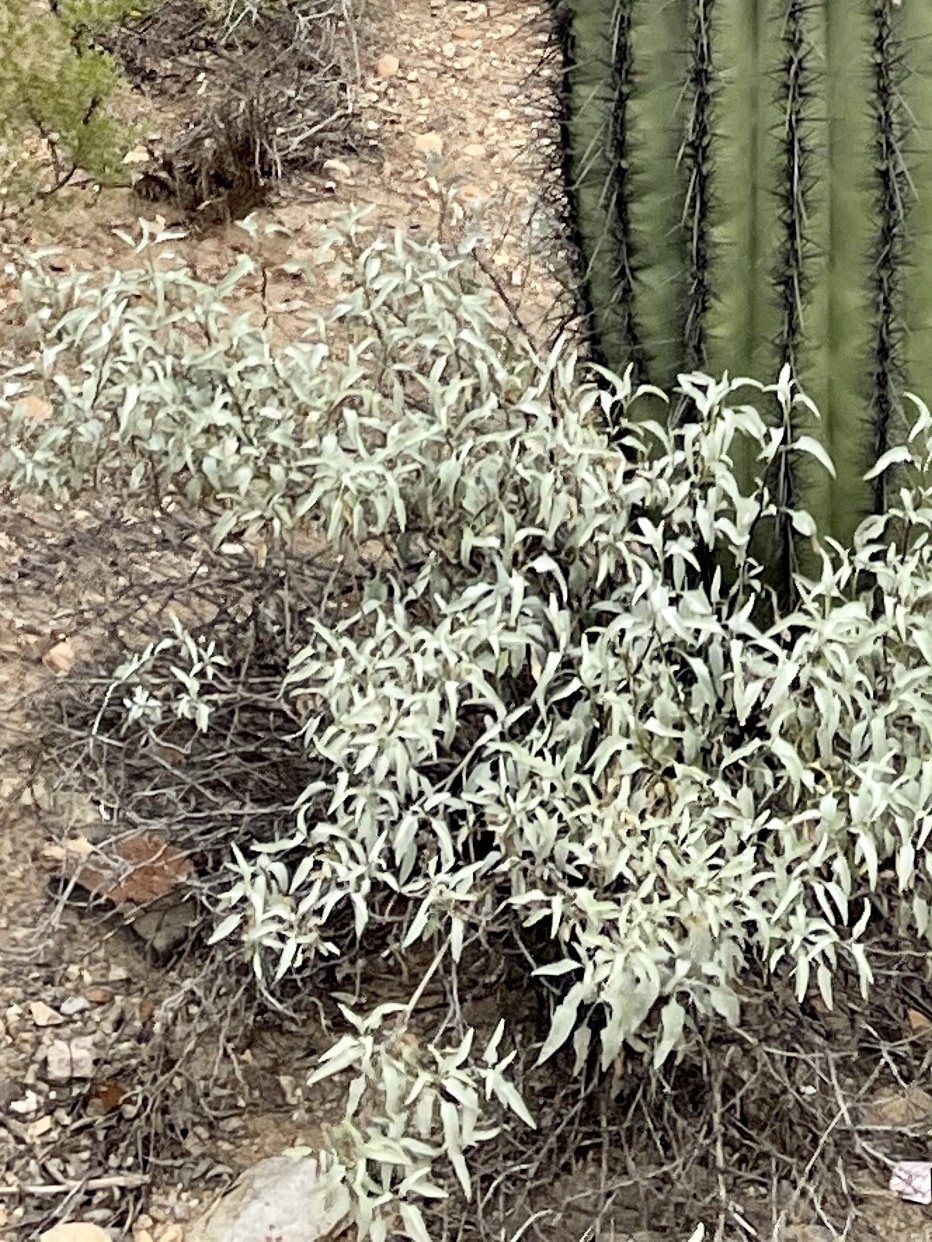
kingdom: Plantae
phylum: Tracheophyta
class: Magnoliopsida
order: Asterales
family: Asteraceae
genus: Ambrosia
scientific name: Ambrosia deltoidea
